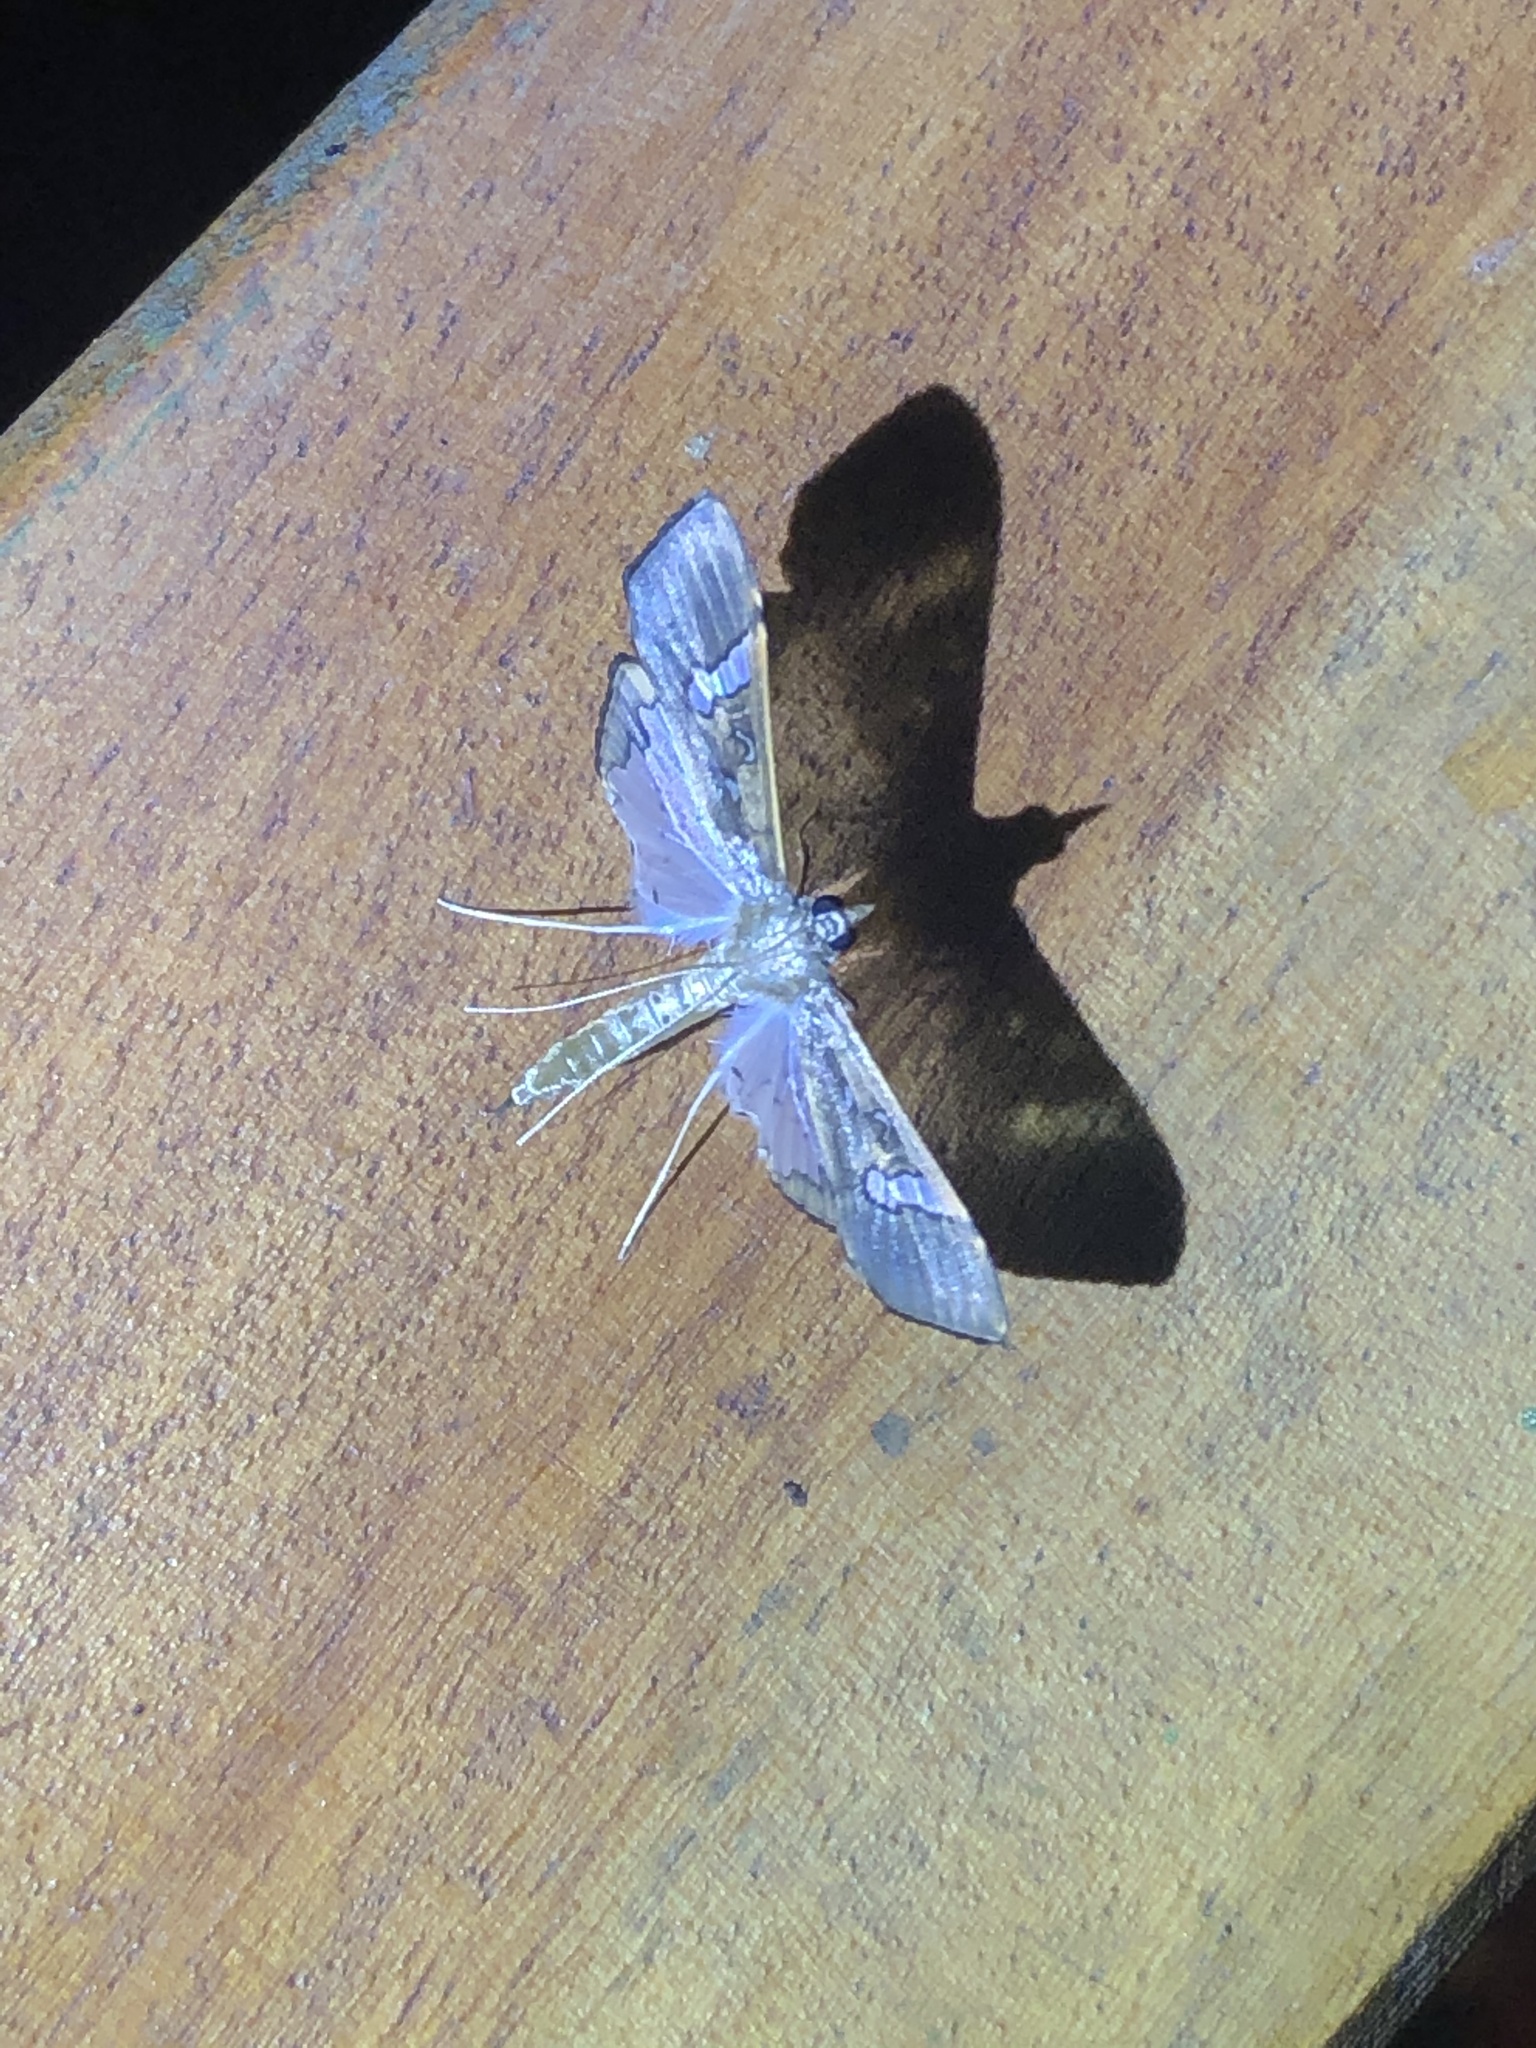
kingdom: Animalia
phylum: Arthropoda
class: Insecta
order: Lepidoptera
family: Crambidae
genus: Maruca
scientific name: Maruca vitrata
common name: Maruca pod borer
